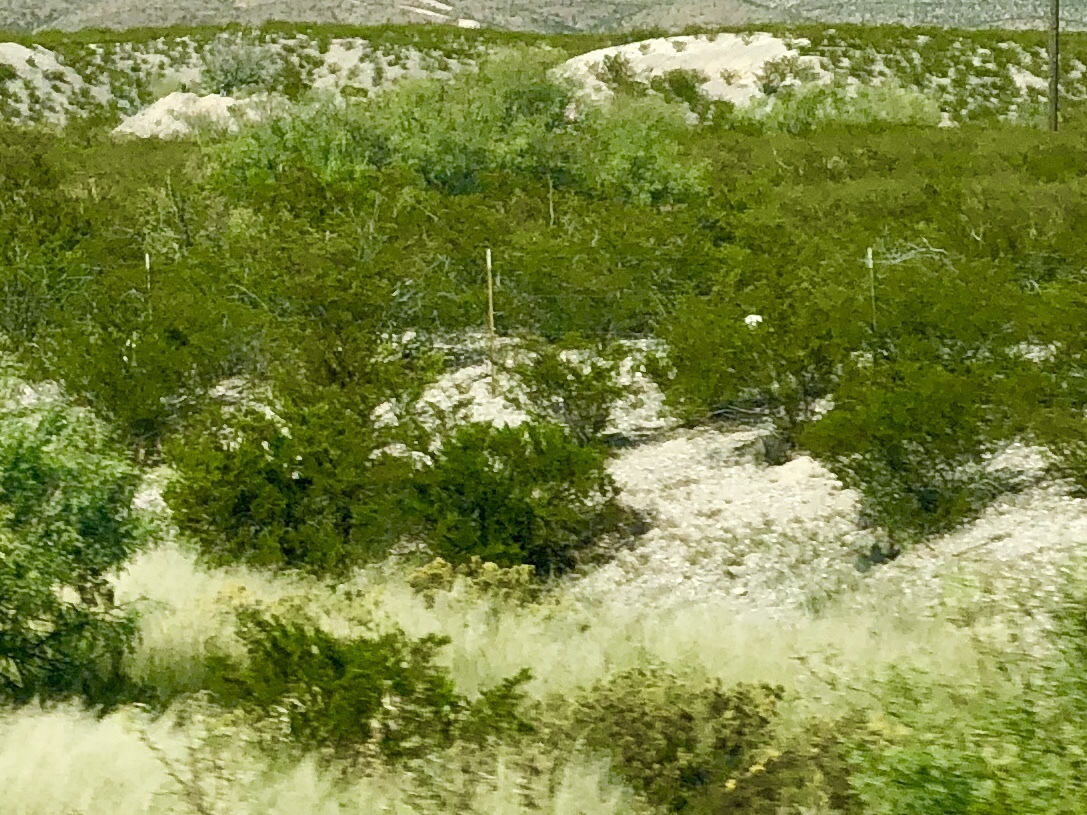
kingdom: Plantae
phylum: Tracheophyta
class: Magnoliopsida
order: Zygophyllales
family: Zygophyllaceae
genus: Larrea
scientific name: Larrea tridentata
